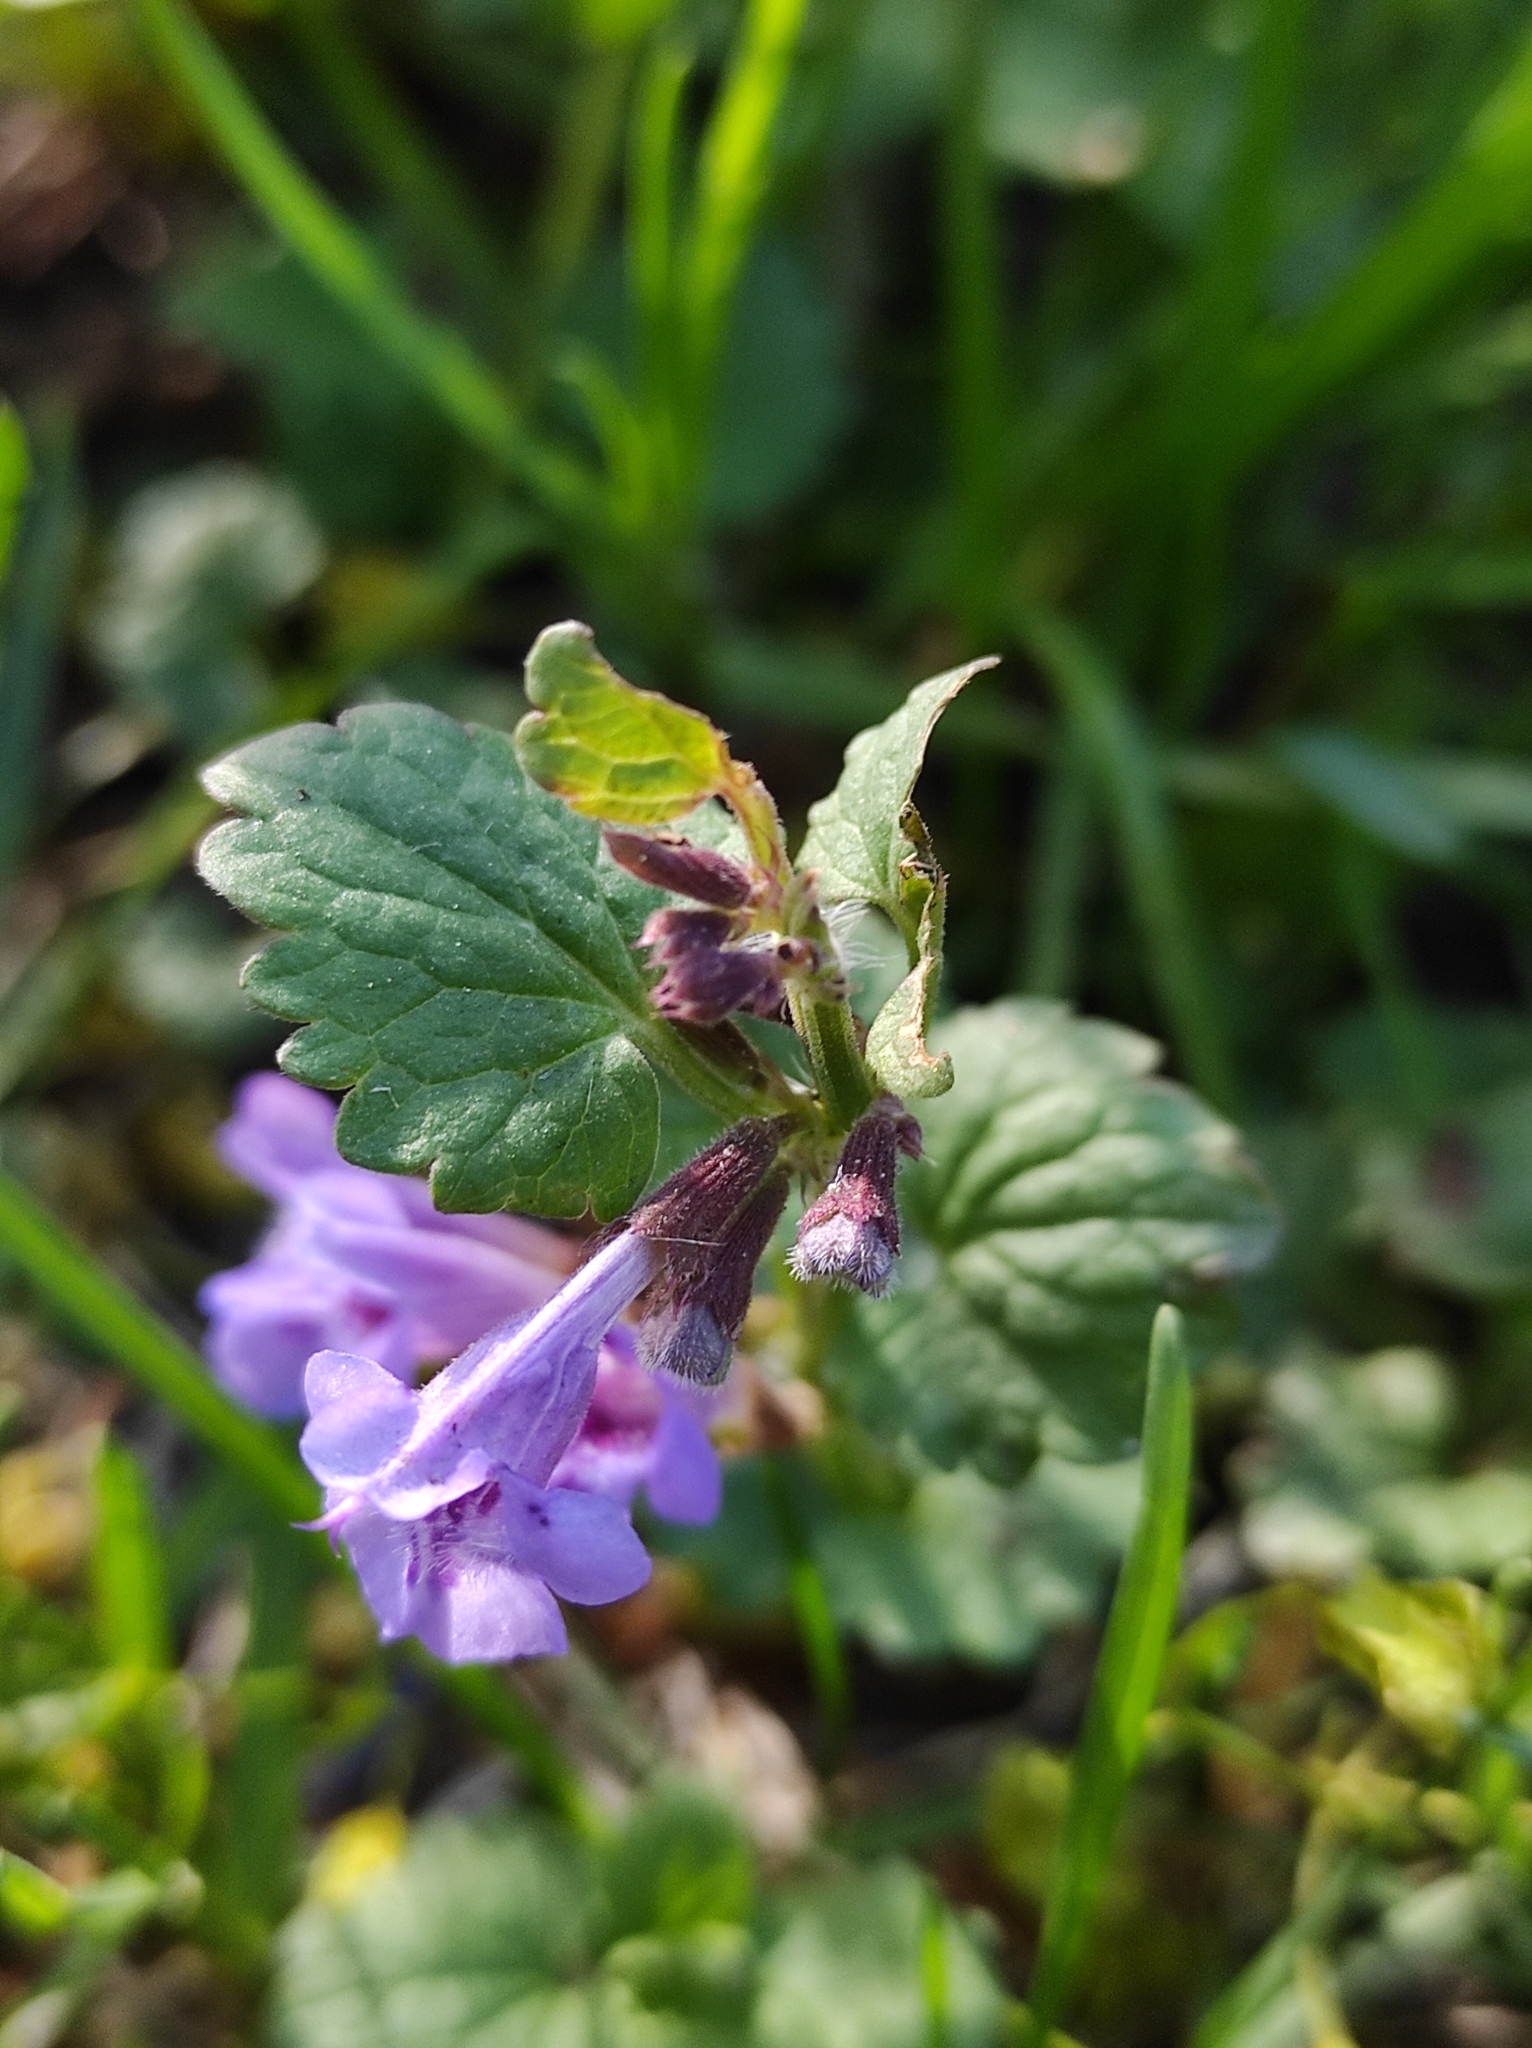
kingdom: Plantae
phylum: Tracheophyta
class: Magnoliopsida
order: Lamiales
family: Lamiaceae
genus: Glechoma
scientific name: Glechoma hederacea
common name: Ground ivy
